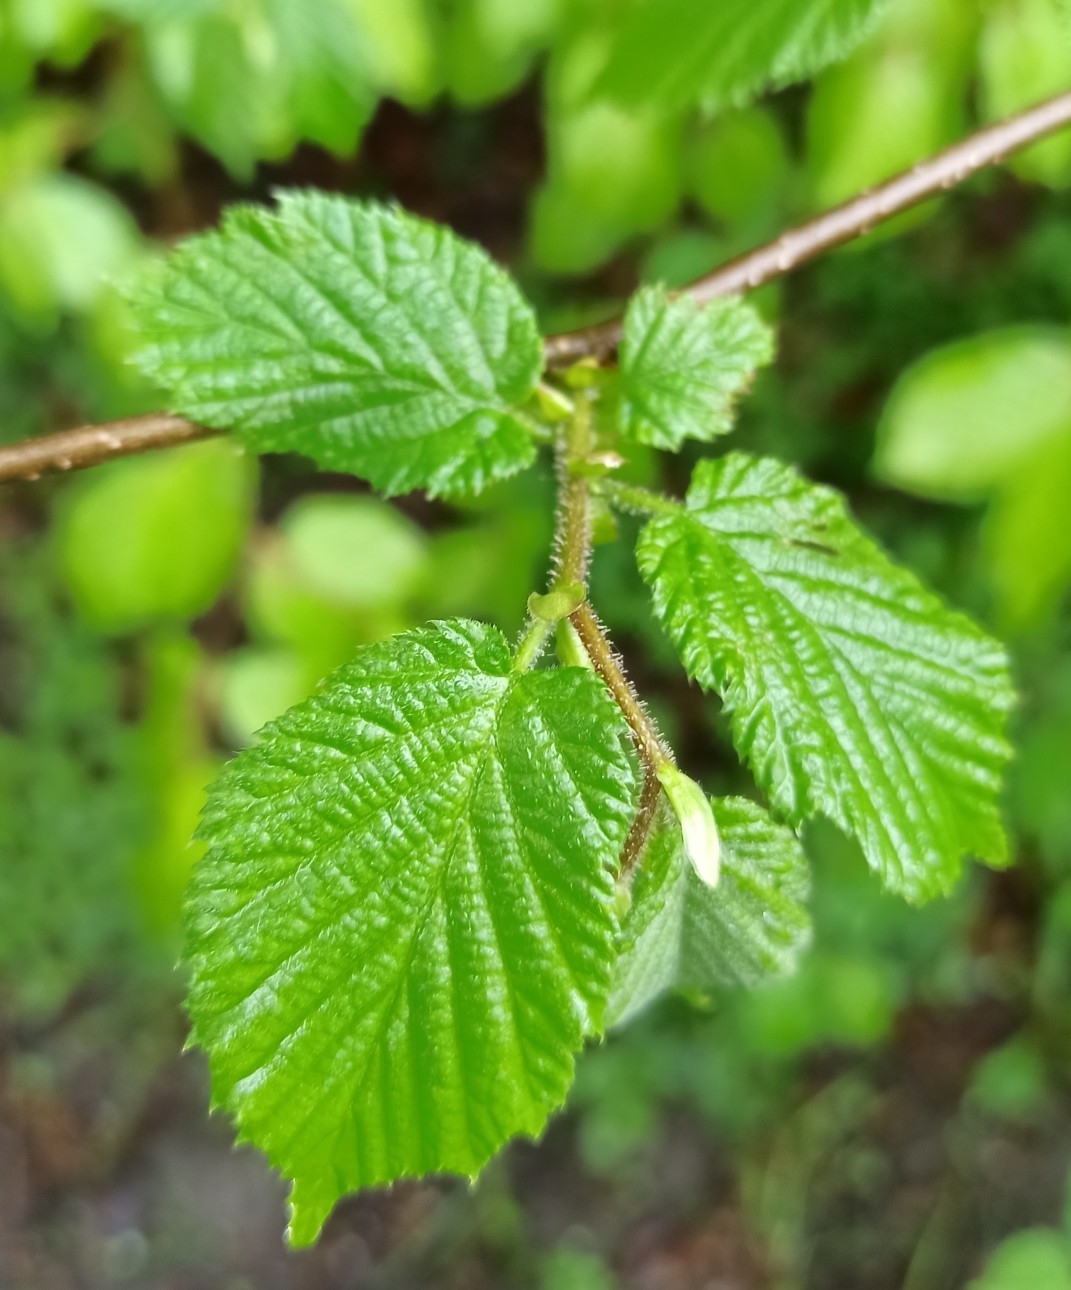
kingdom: Plantae
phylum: Tracheophyta
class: Magnoliopsida
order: Fagales
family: Betulaceae
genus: Corylus
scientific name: Corylus avellana
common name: European hazel
